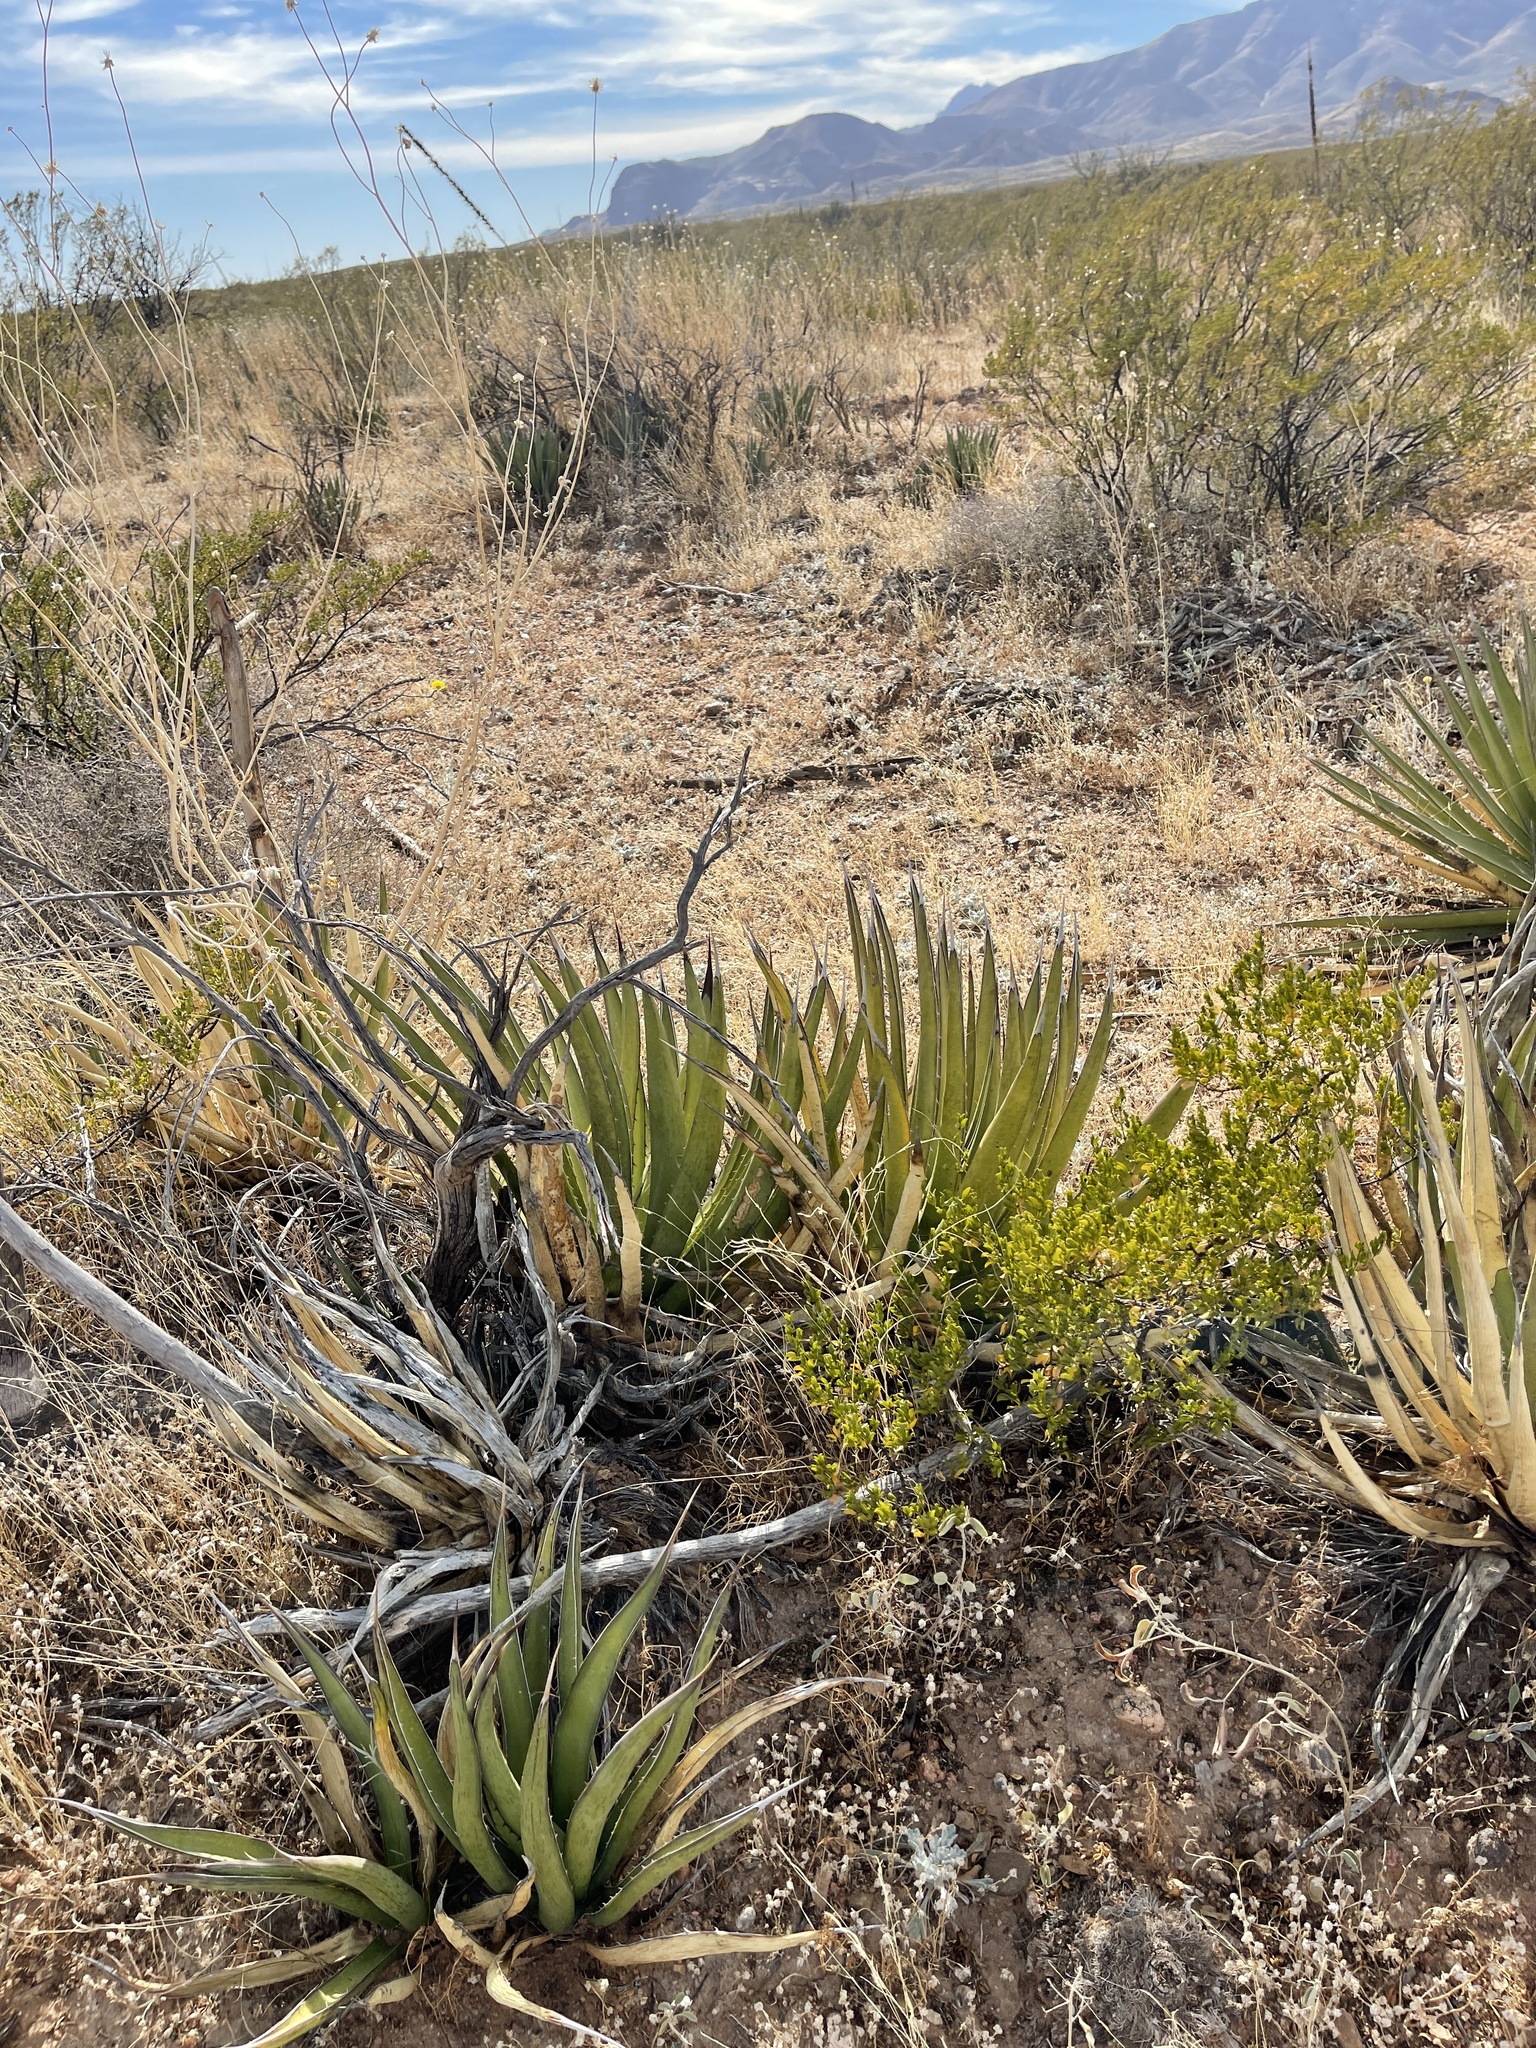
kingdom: Plantae
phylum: Tracheophyta
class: Liliopsida
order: Asparagales
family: Asparagaceae
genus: Agave
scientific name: Agave lechuguilla
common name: Lecheguilla agave
